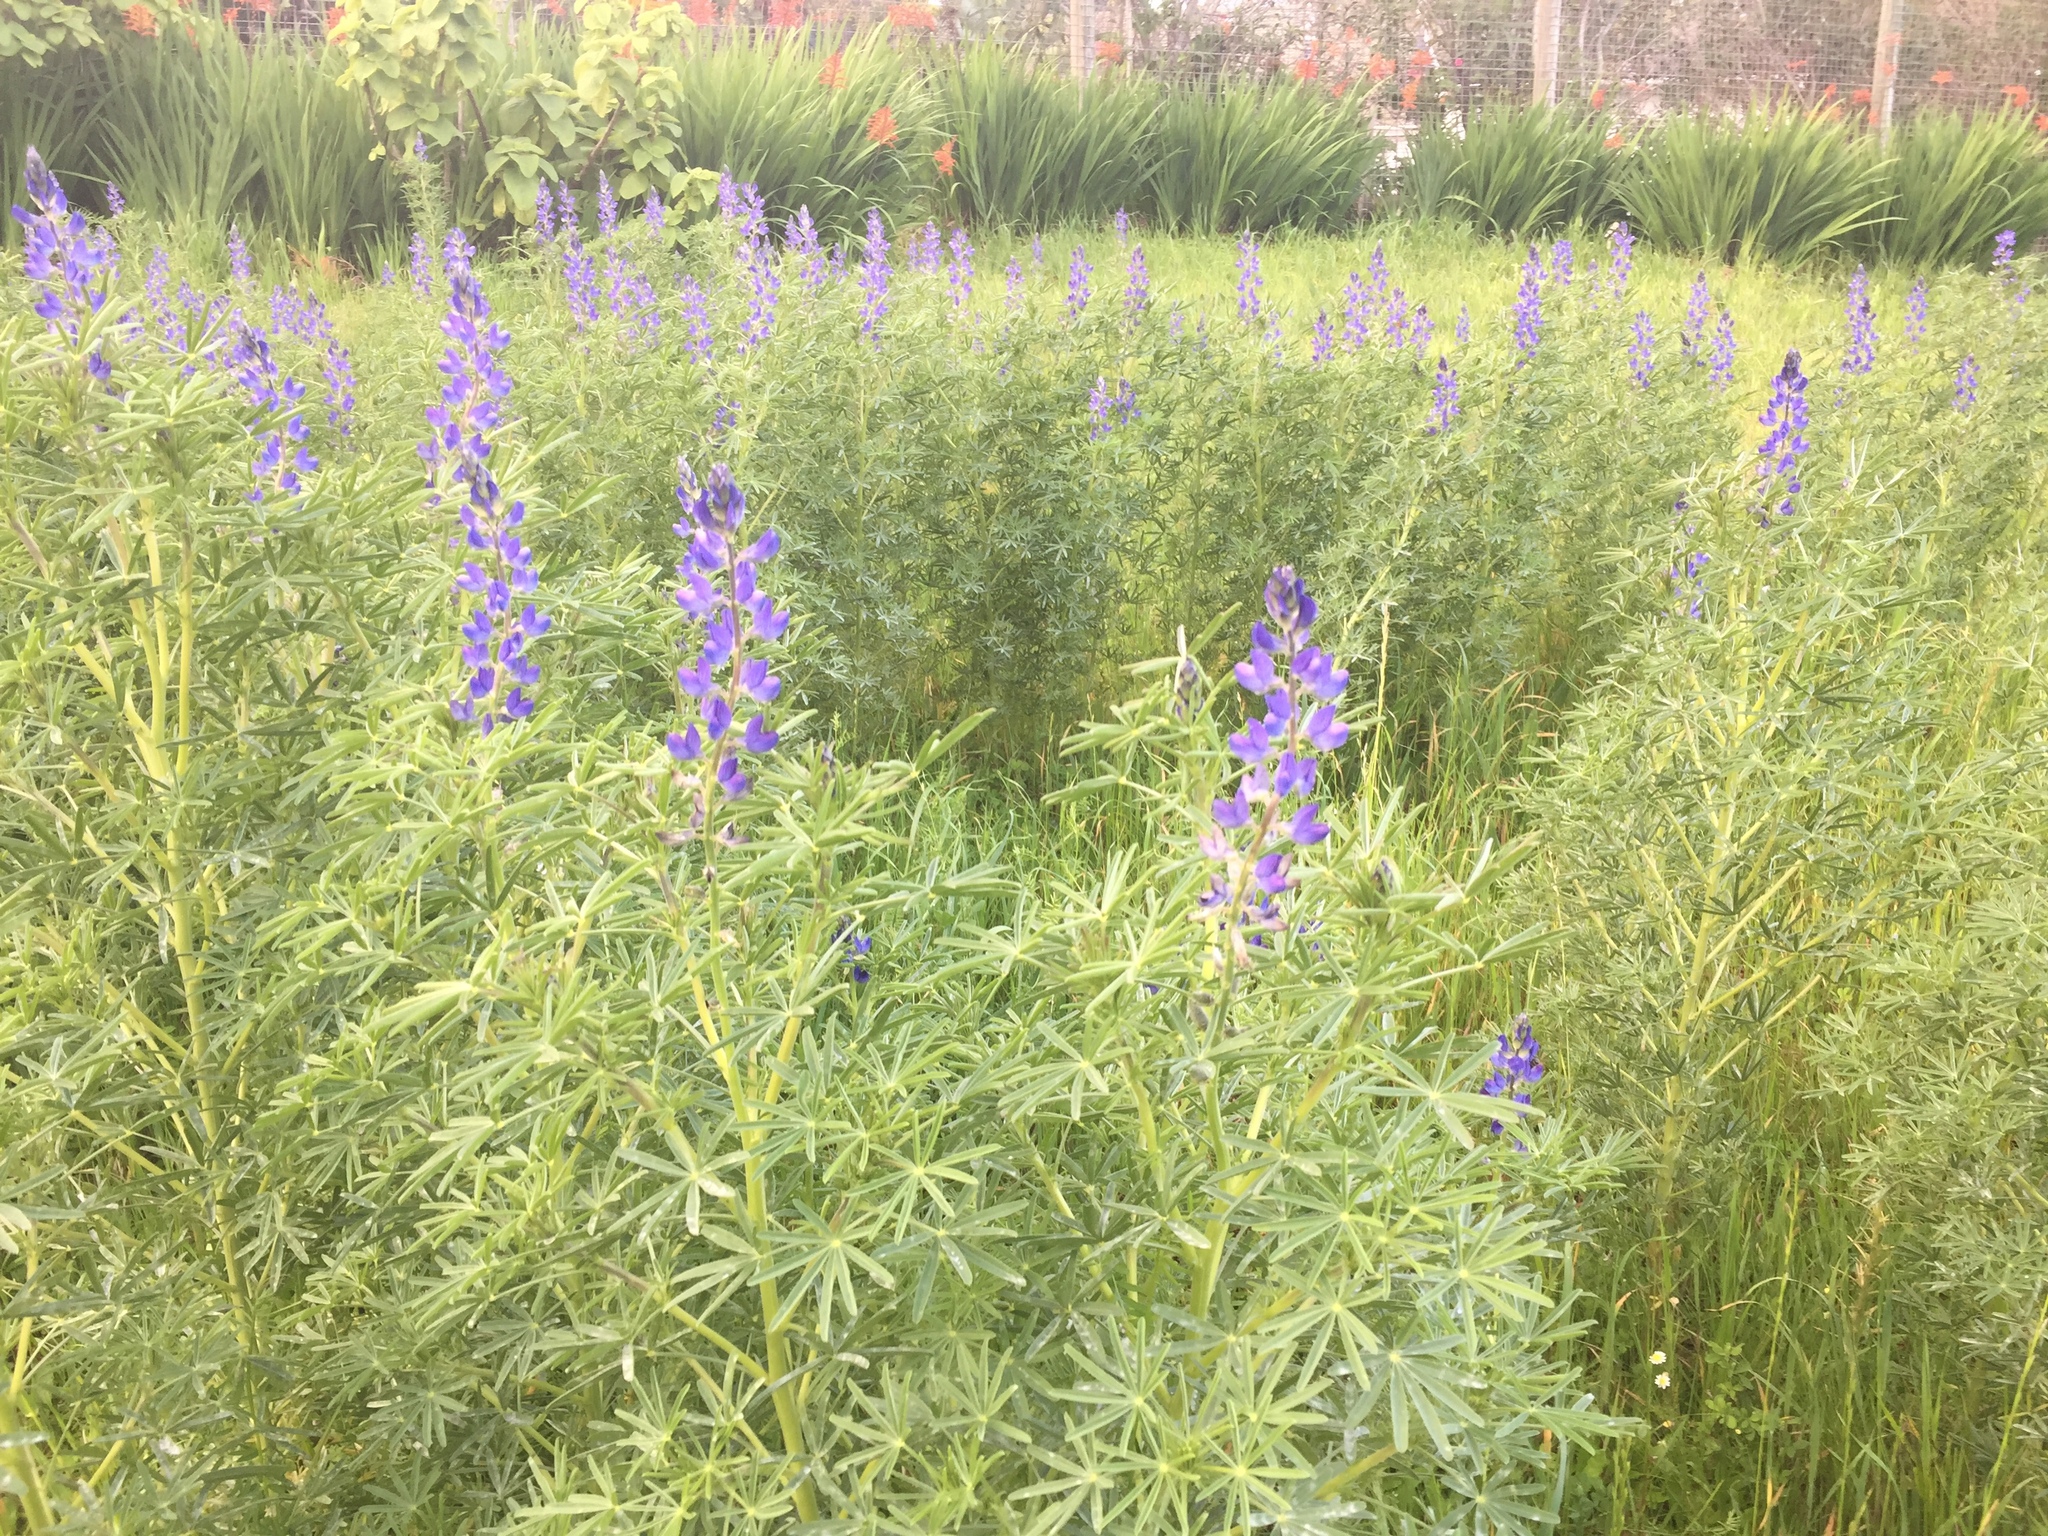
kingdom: Plantae
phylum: Tracheophyta
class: Magnoliopsida
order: Fabales
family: Fabaceae
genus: Lupinus
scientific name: Lupinus angustifolius
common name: Narrow-leaved lupin
